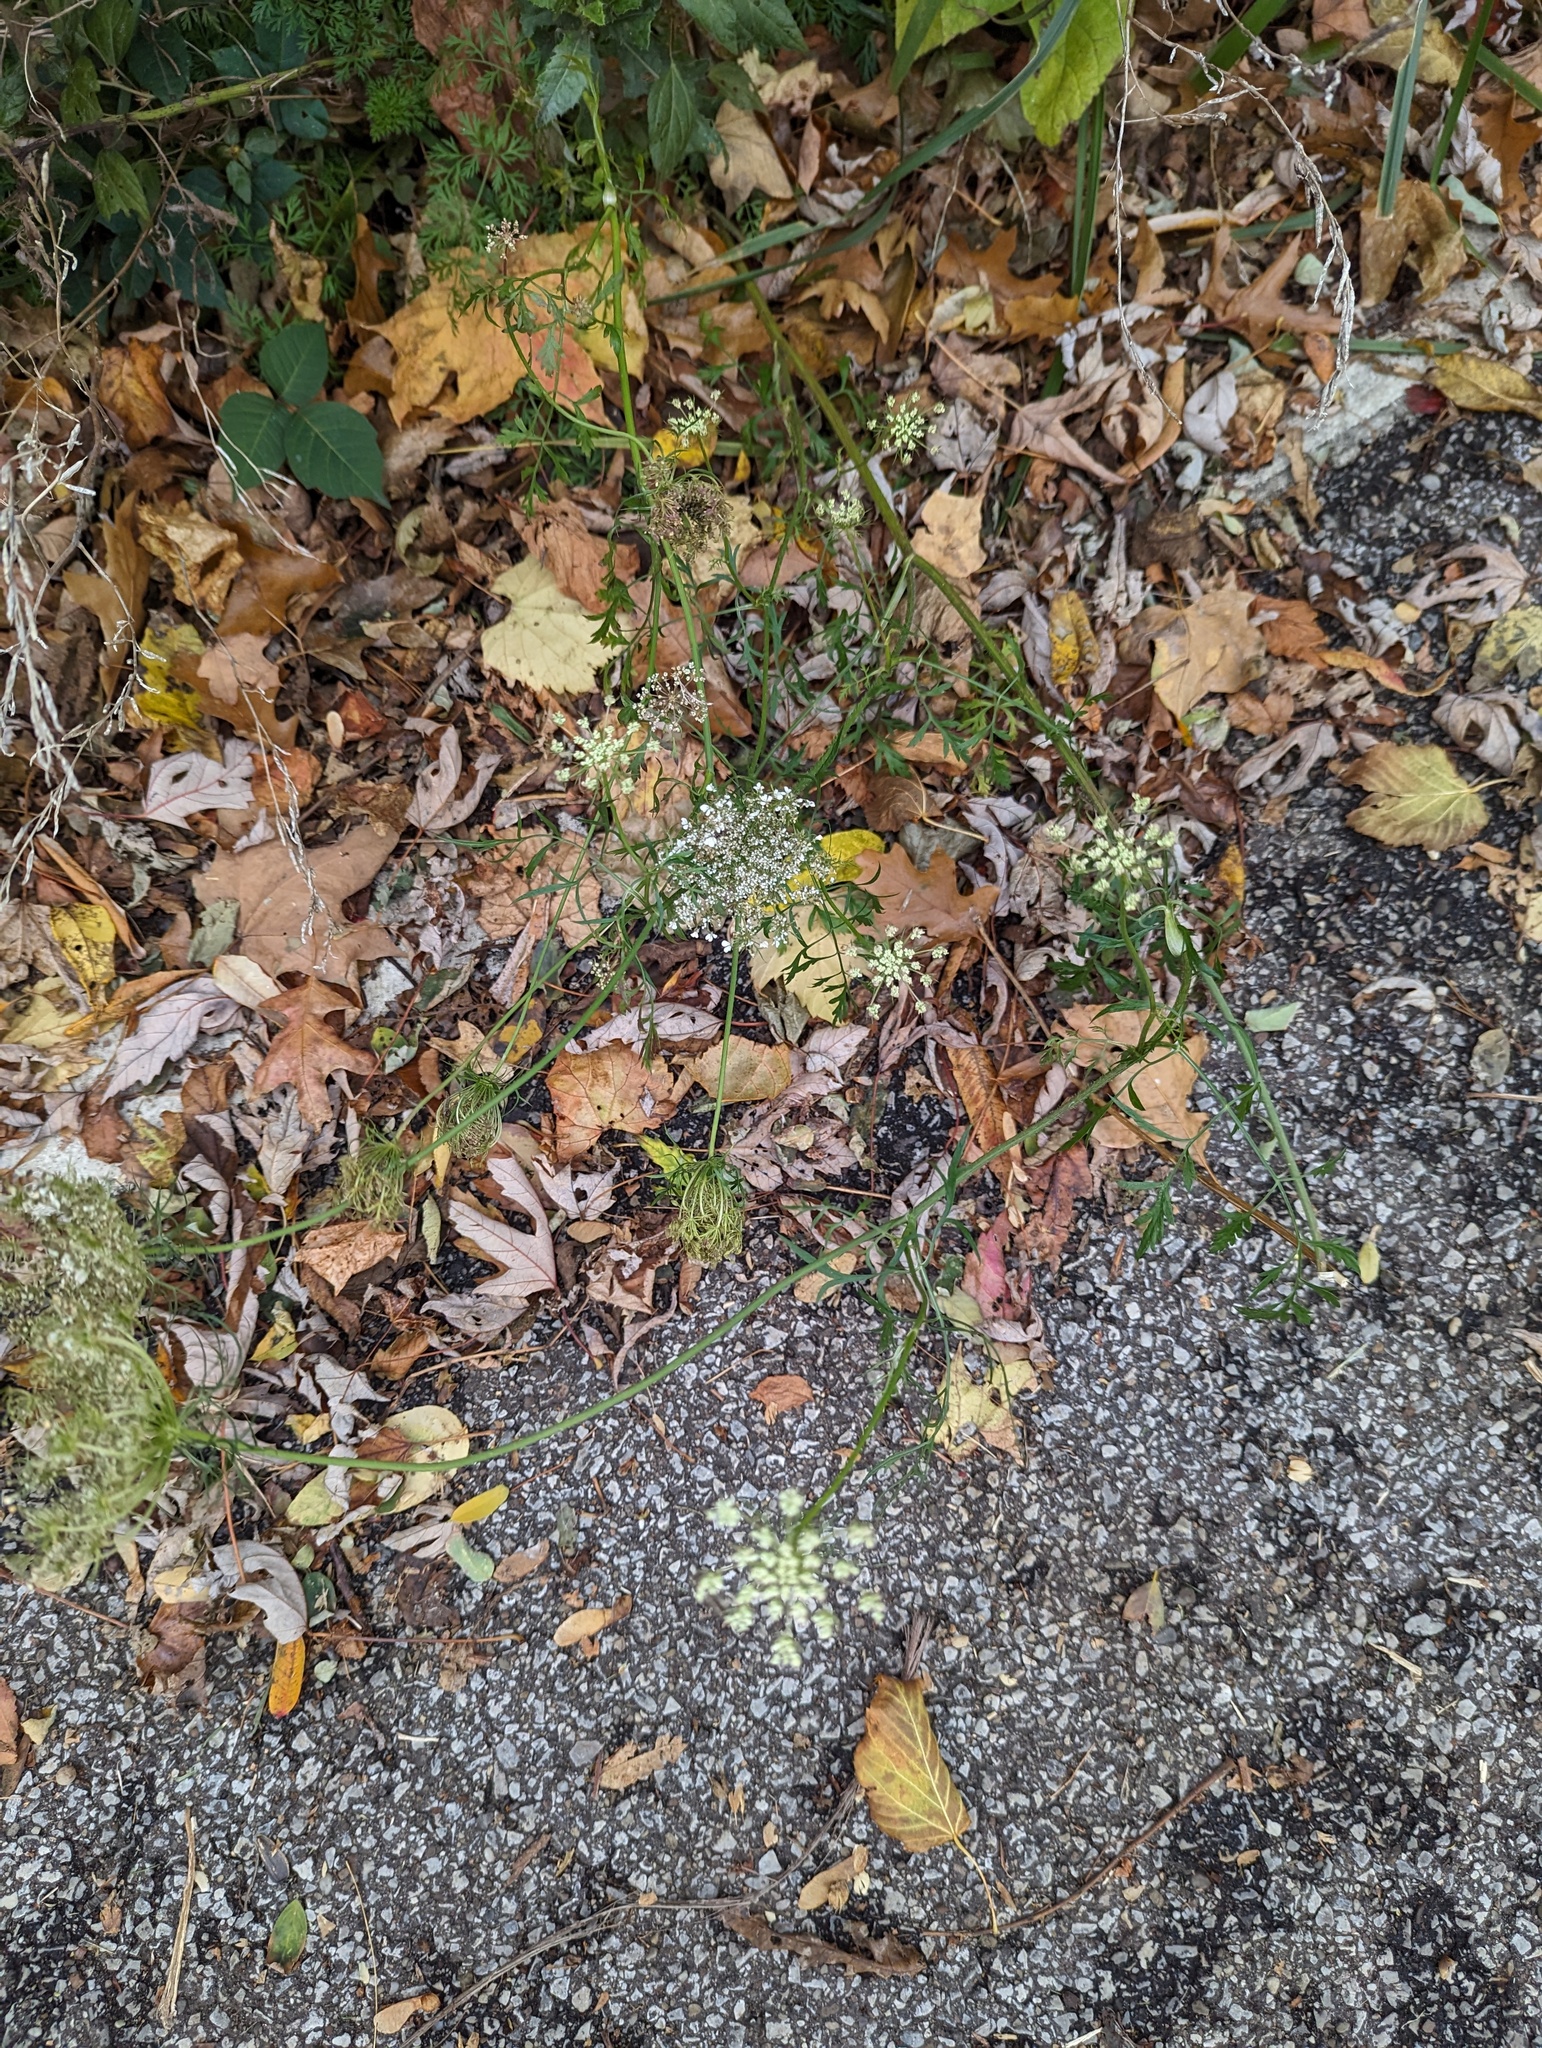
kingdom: Plantae
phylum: Tracheophyta
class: Magnoliopsida
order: Apiales
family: Apiaceae
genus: Daucus
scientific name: Daucus carota
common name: Wild carrot
